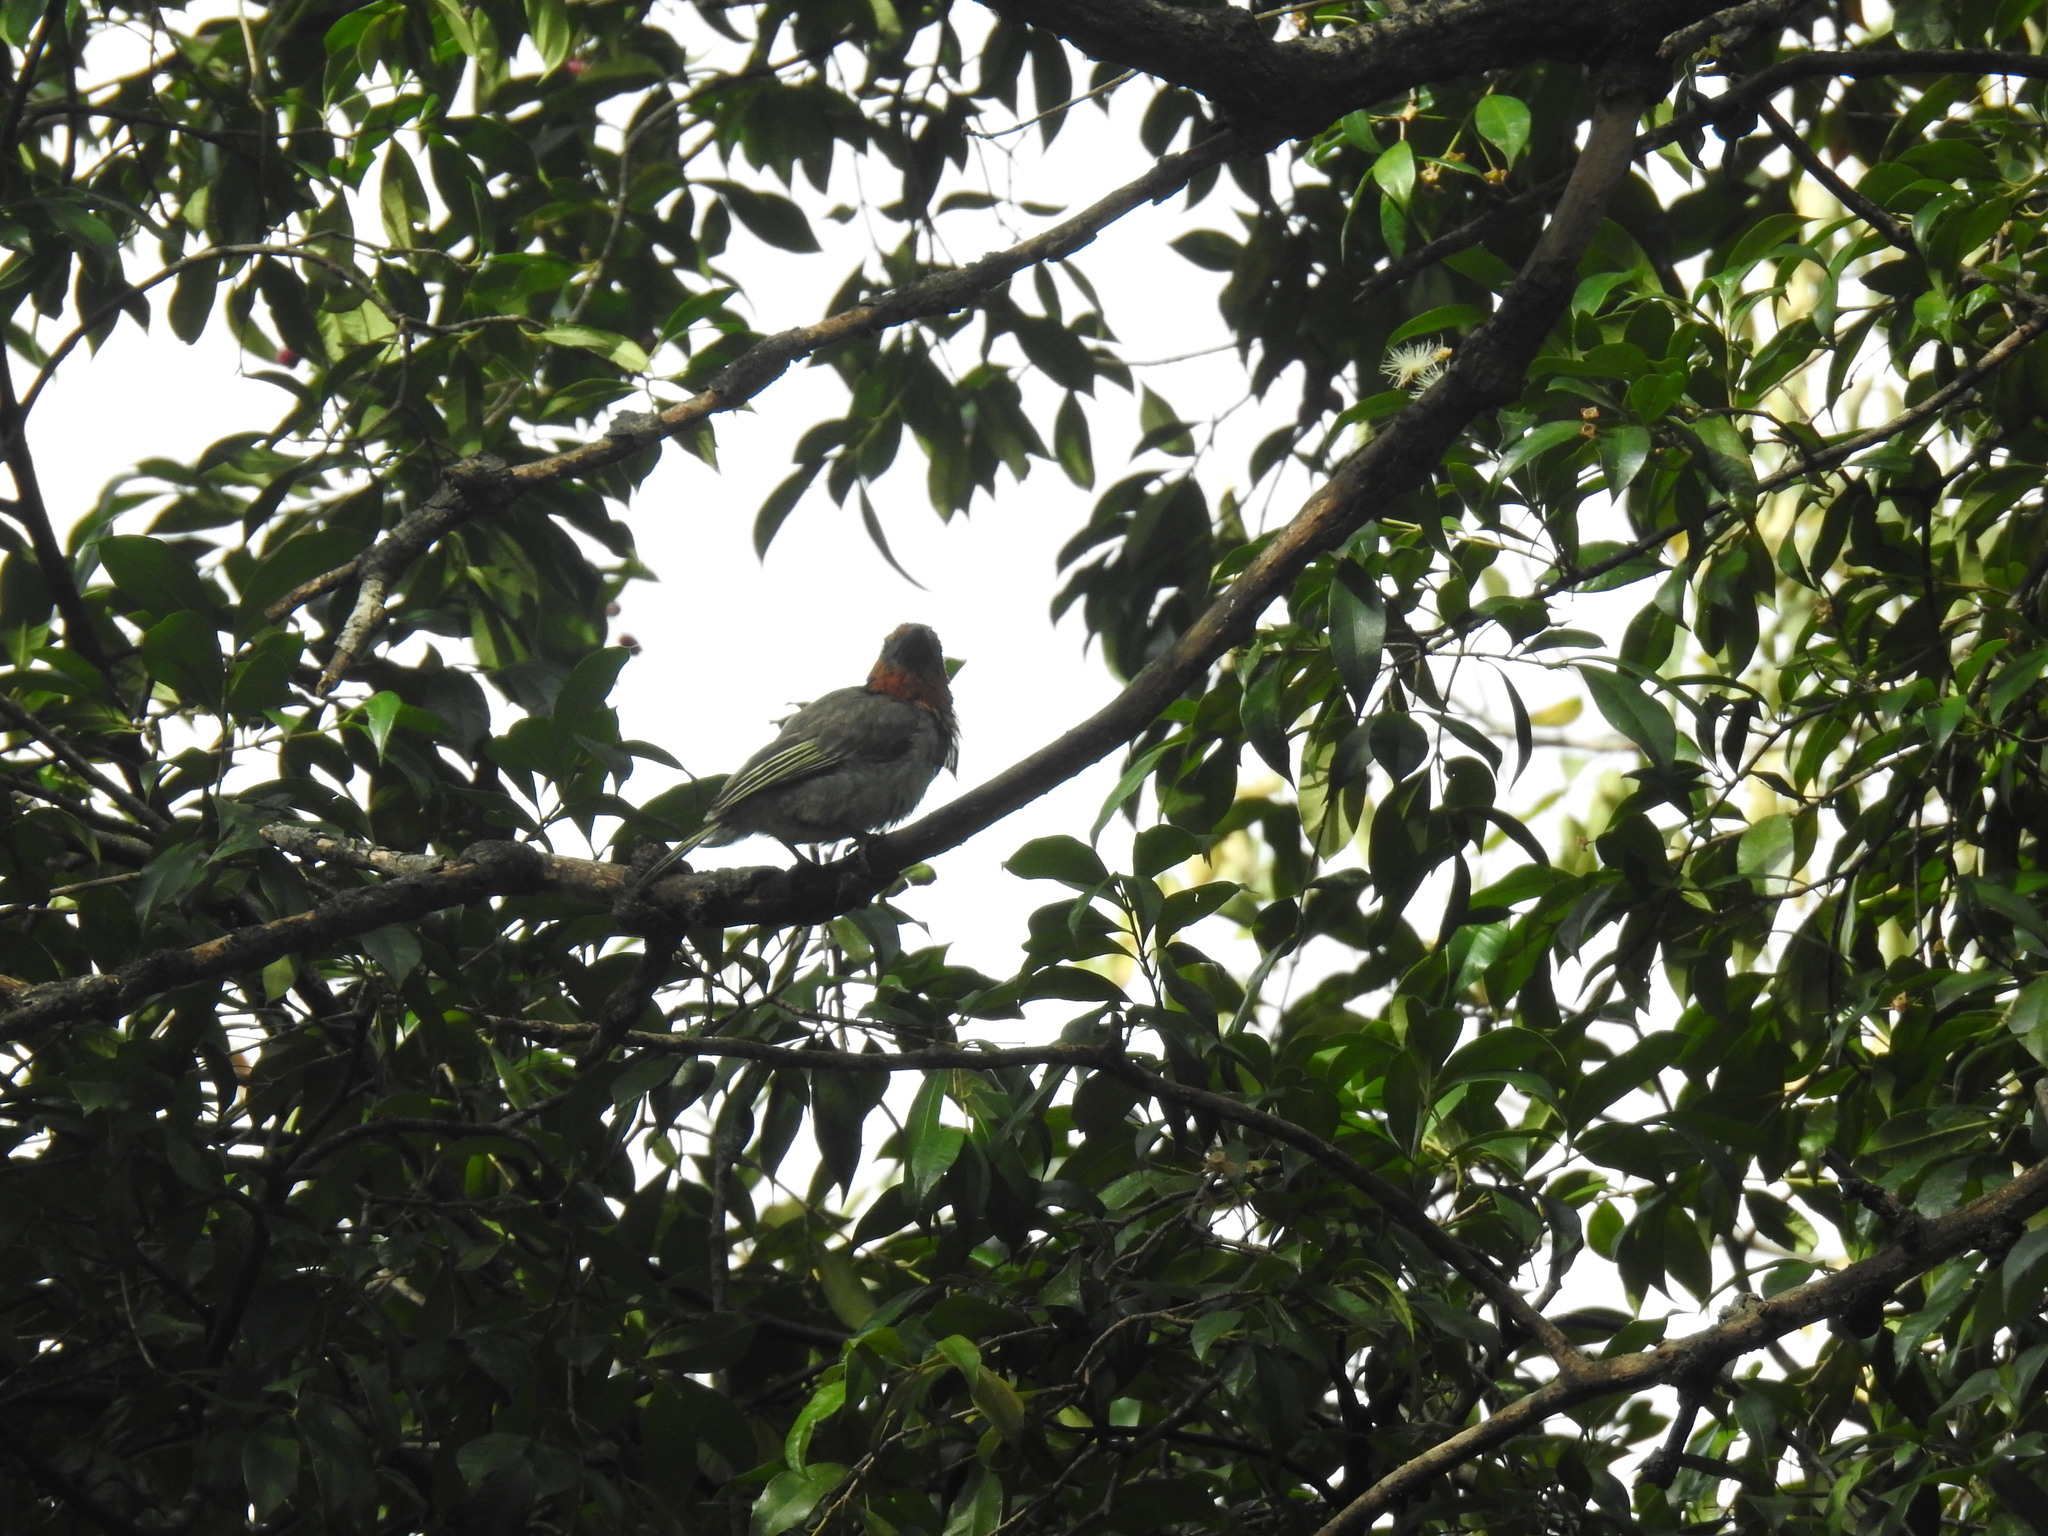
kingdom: Animalia
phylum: Chordata
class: Aves
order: Piciformes
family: Lybiidae
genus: Lybius
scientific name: Lybius torquatus
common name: Black-collared barbet
